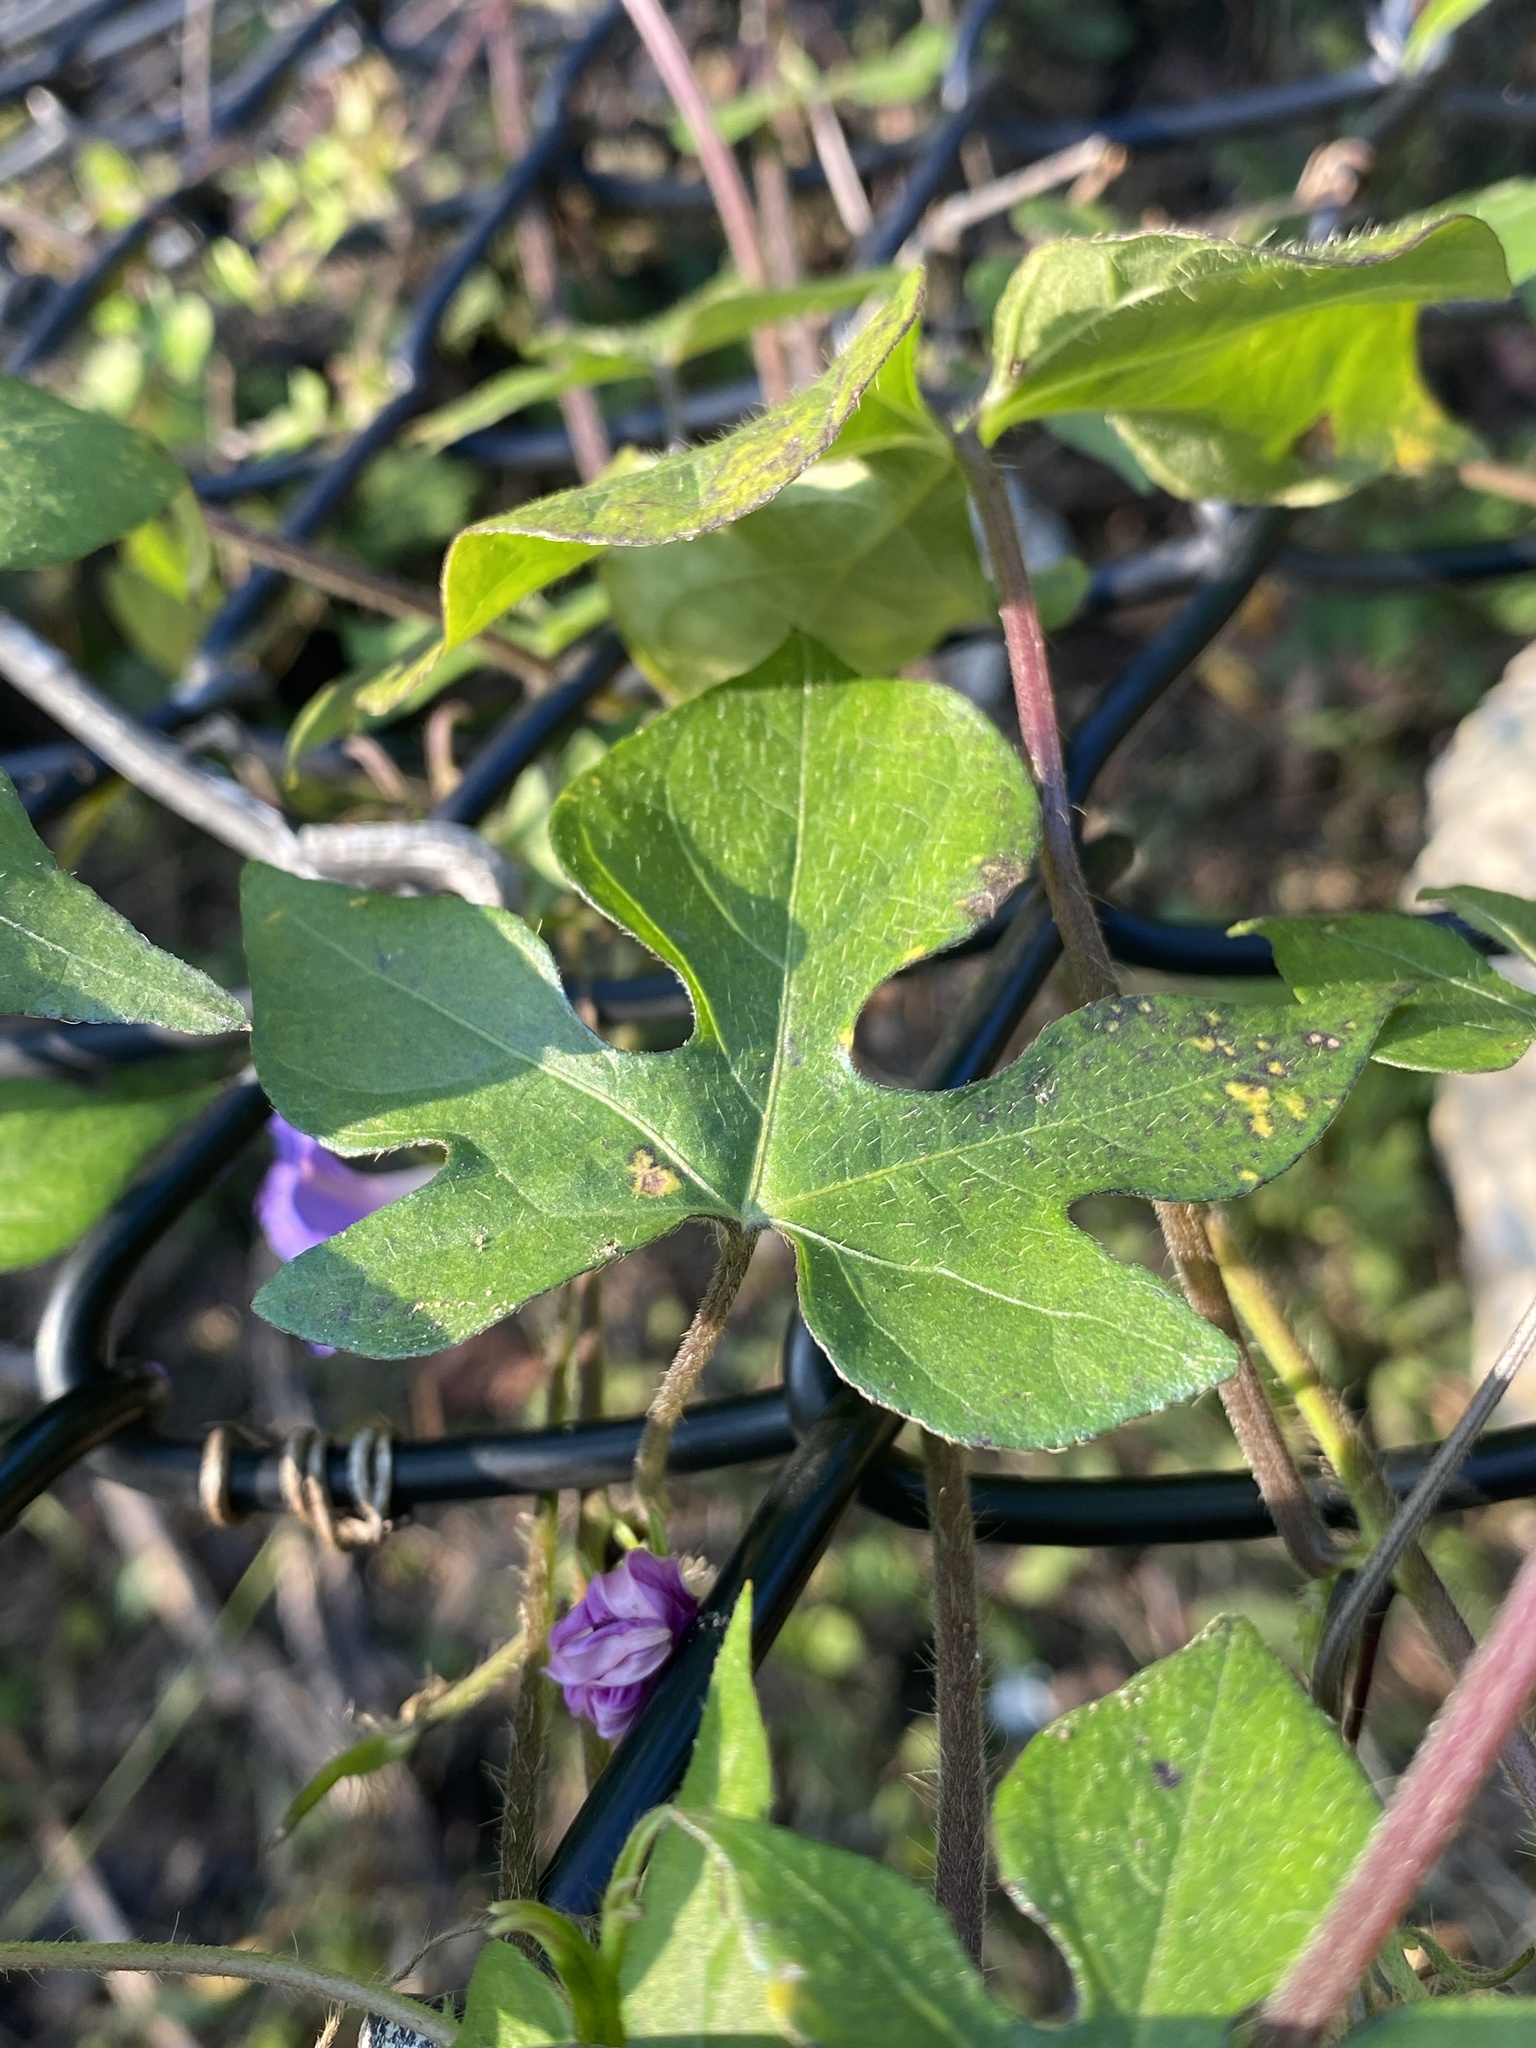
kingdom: Plantae
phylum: Tracheophyta
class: Magnoliopsida
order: Solanales
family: Convolvulaceae
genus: Ipomoea
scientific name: Ipomoea hederacea
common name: Ivy-leaved morning-glory
